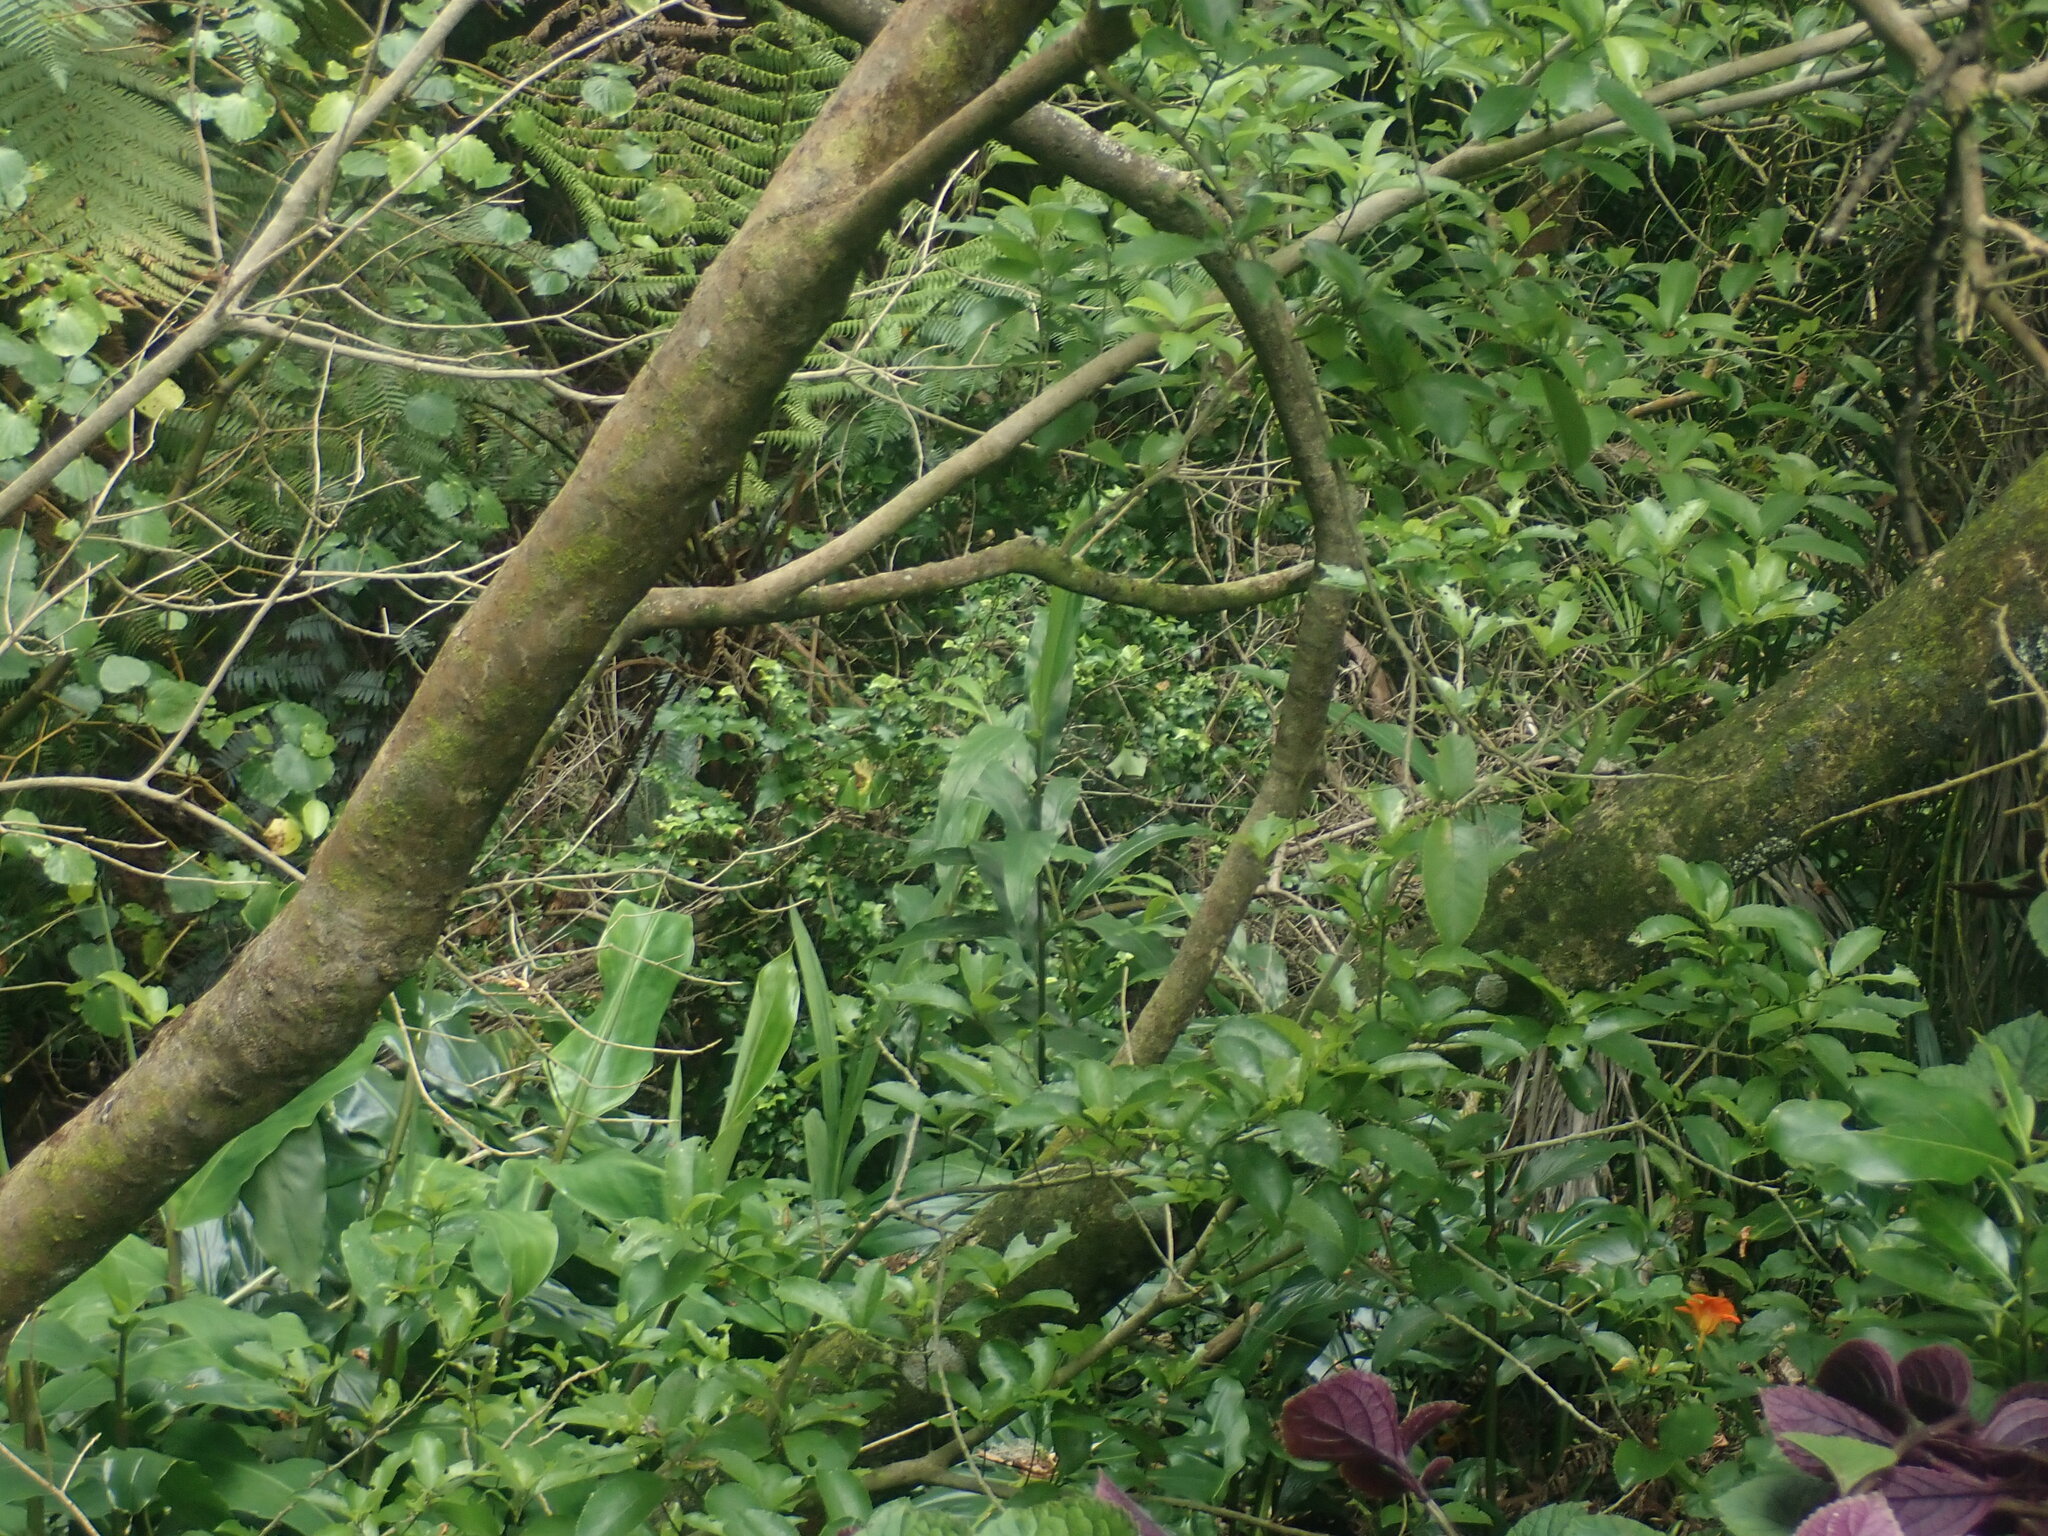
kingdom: Plantae
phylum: Tracheophyta
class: Liliopsida
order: Zingiberales
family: Zingiberaceae
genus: Hedychium
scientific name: Hedychium gardnerianum
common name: Himalayan ginger
